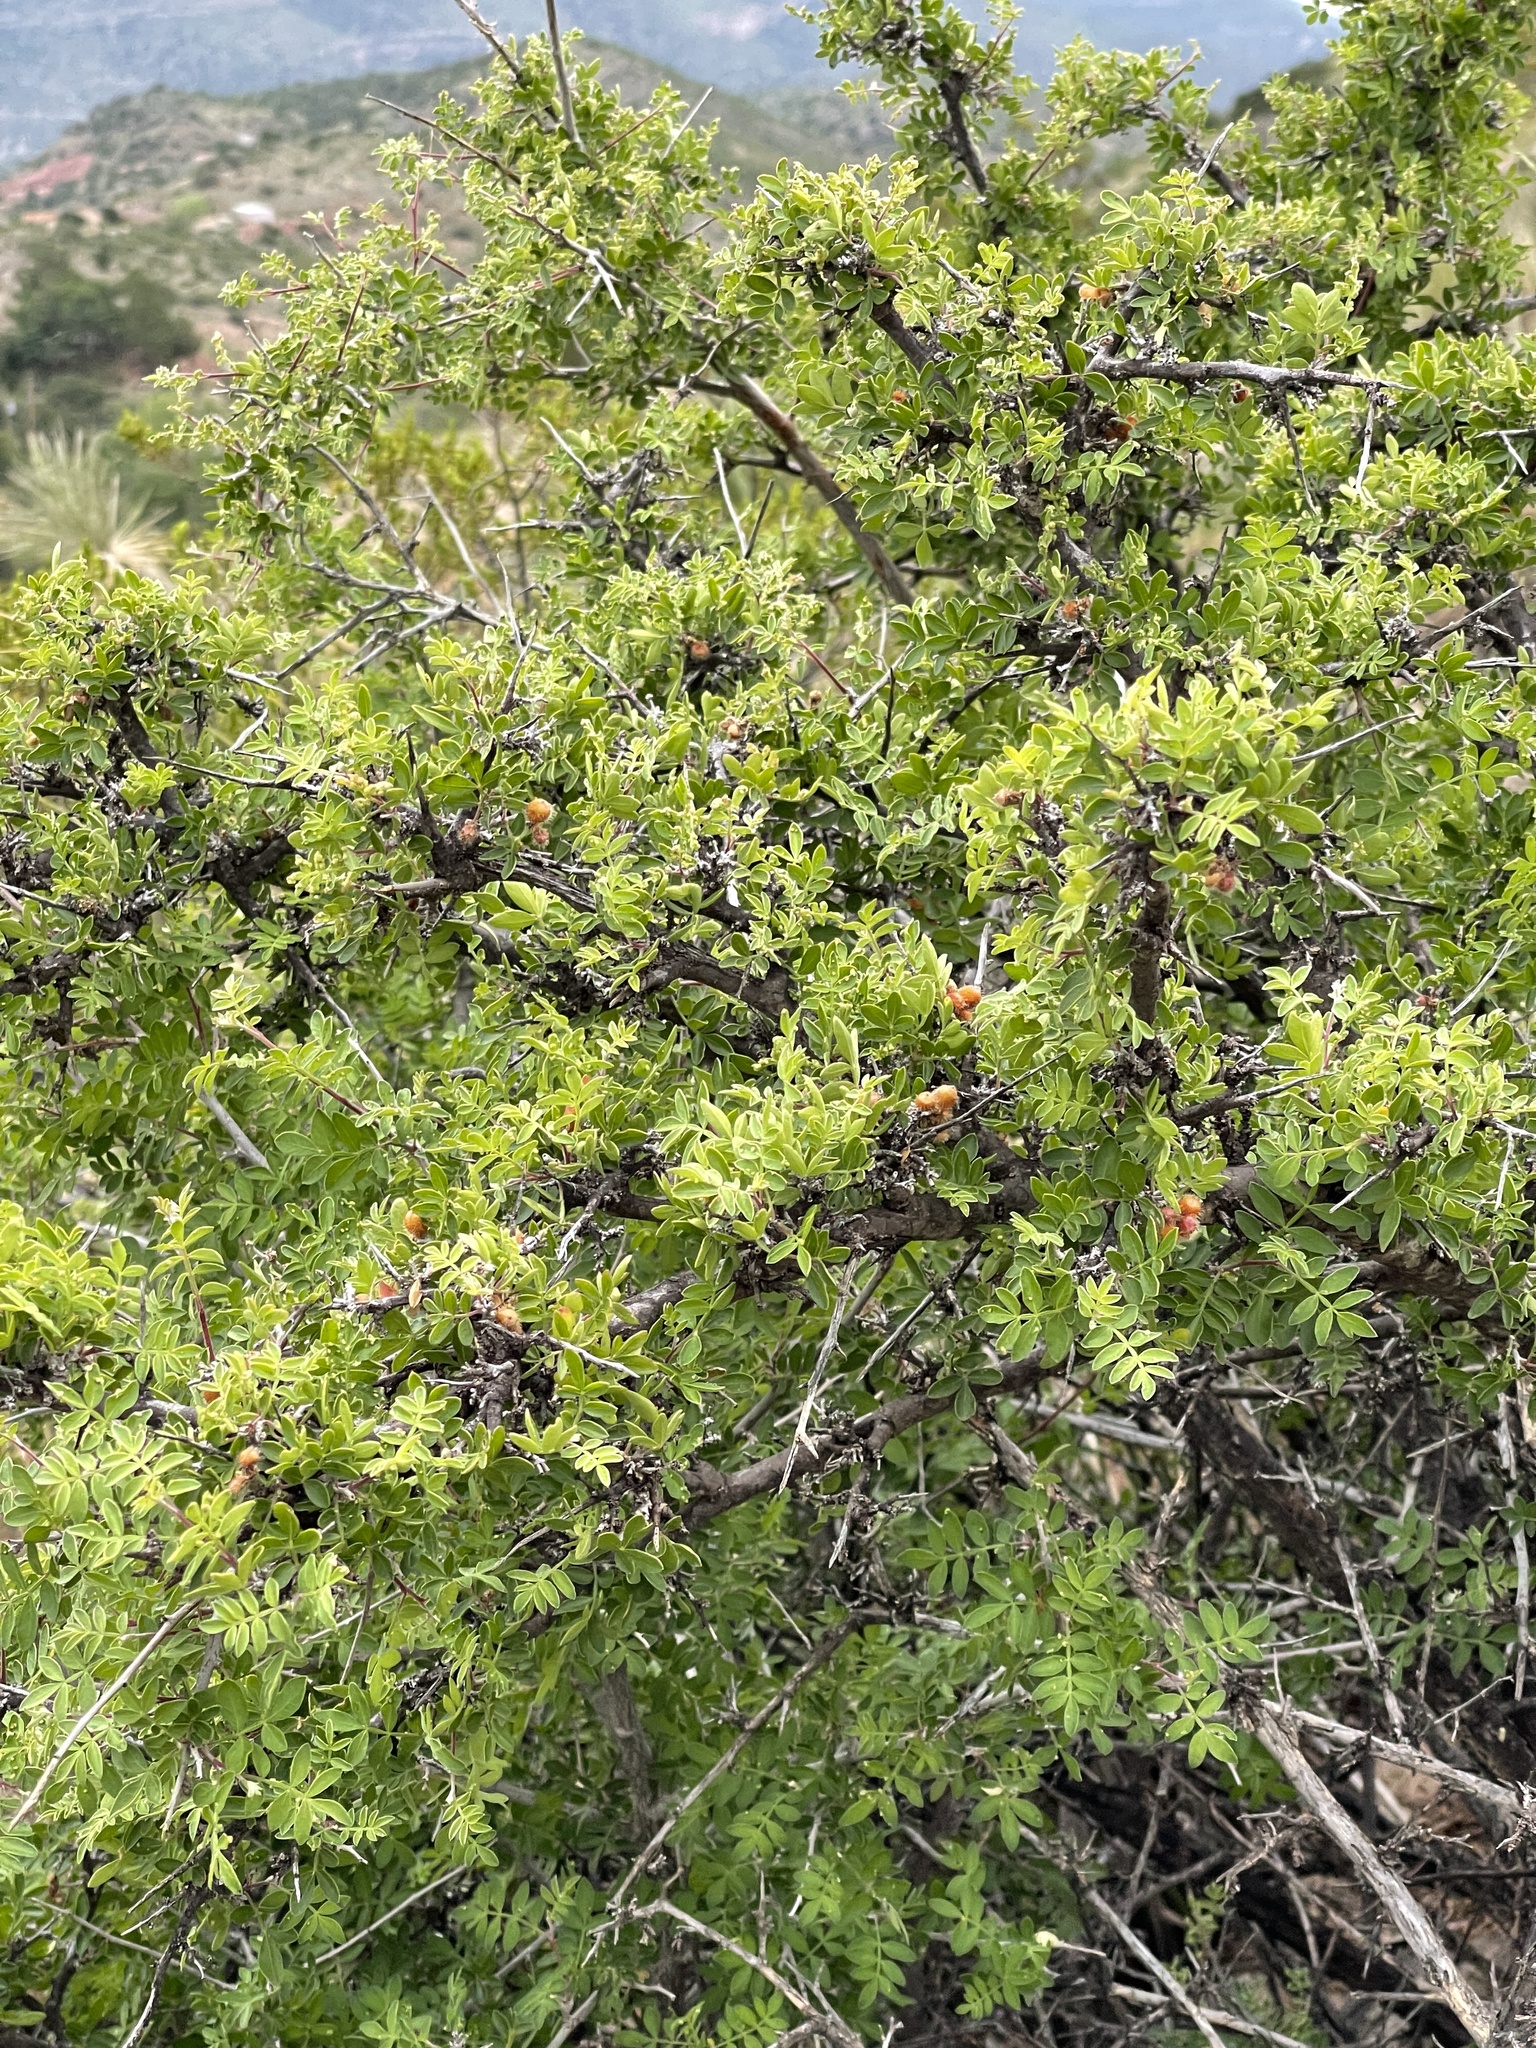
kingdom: Plantae
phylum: Tracheophyta
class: Magnoliopsida
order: Sapindales
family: Anacardiaceae
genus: Rhus
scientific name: Rhus microphylla
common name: Desert sumac
